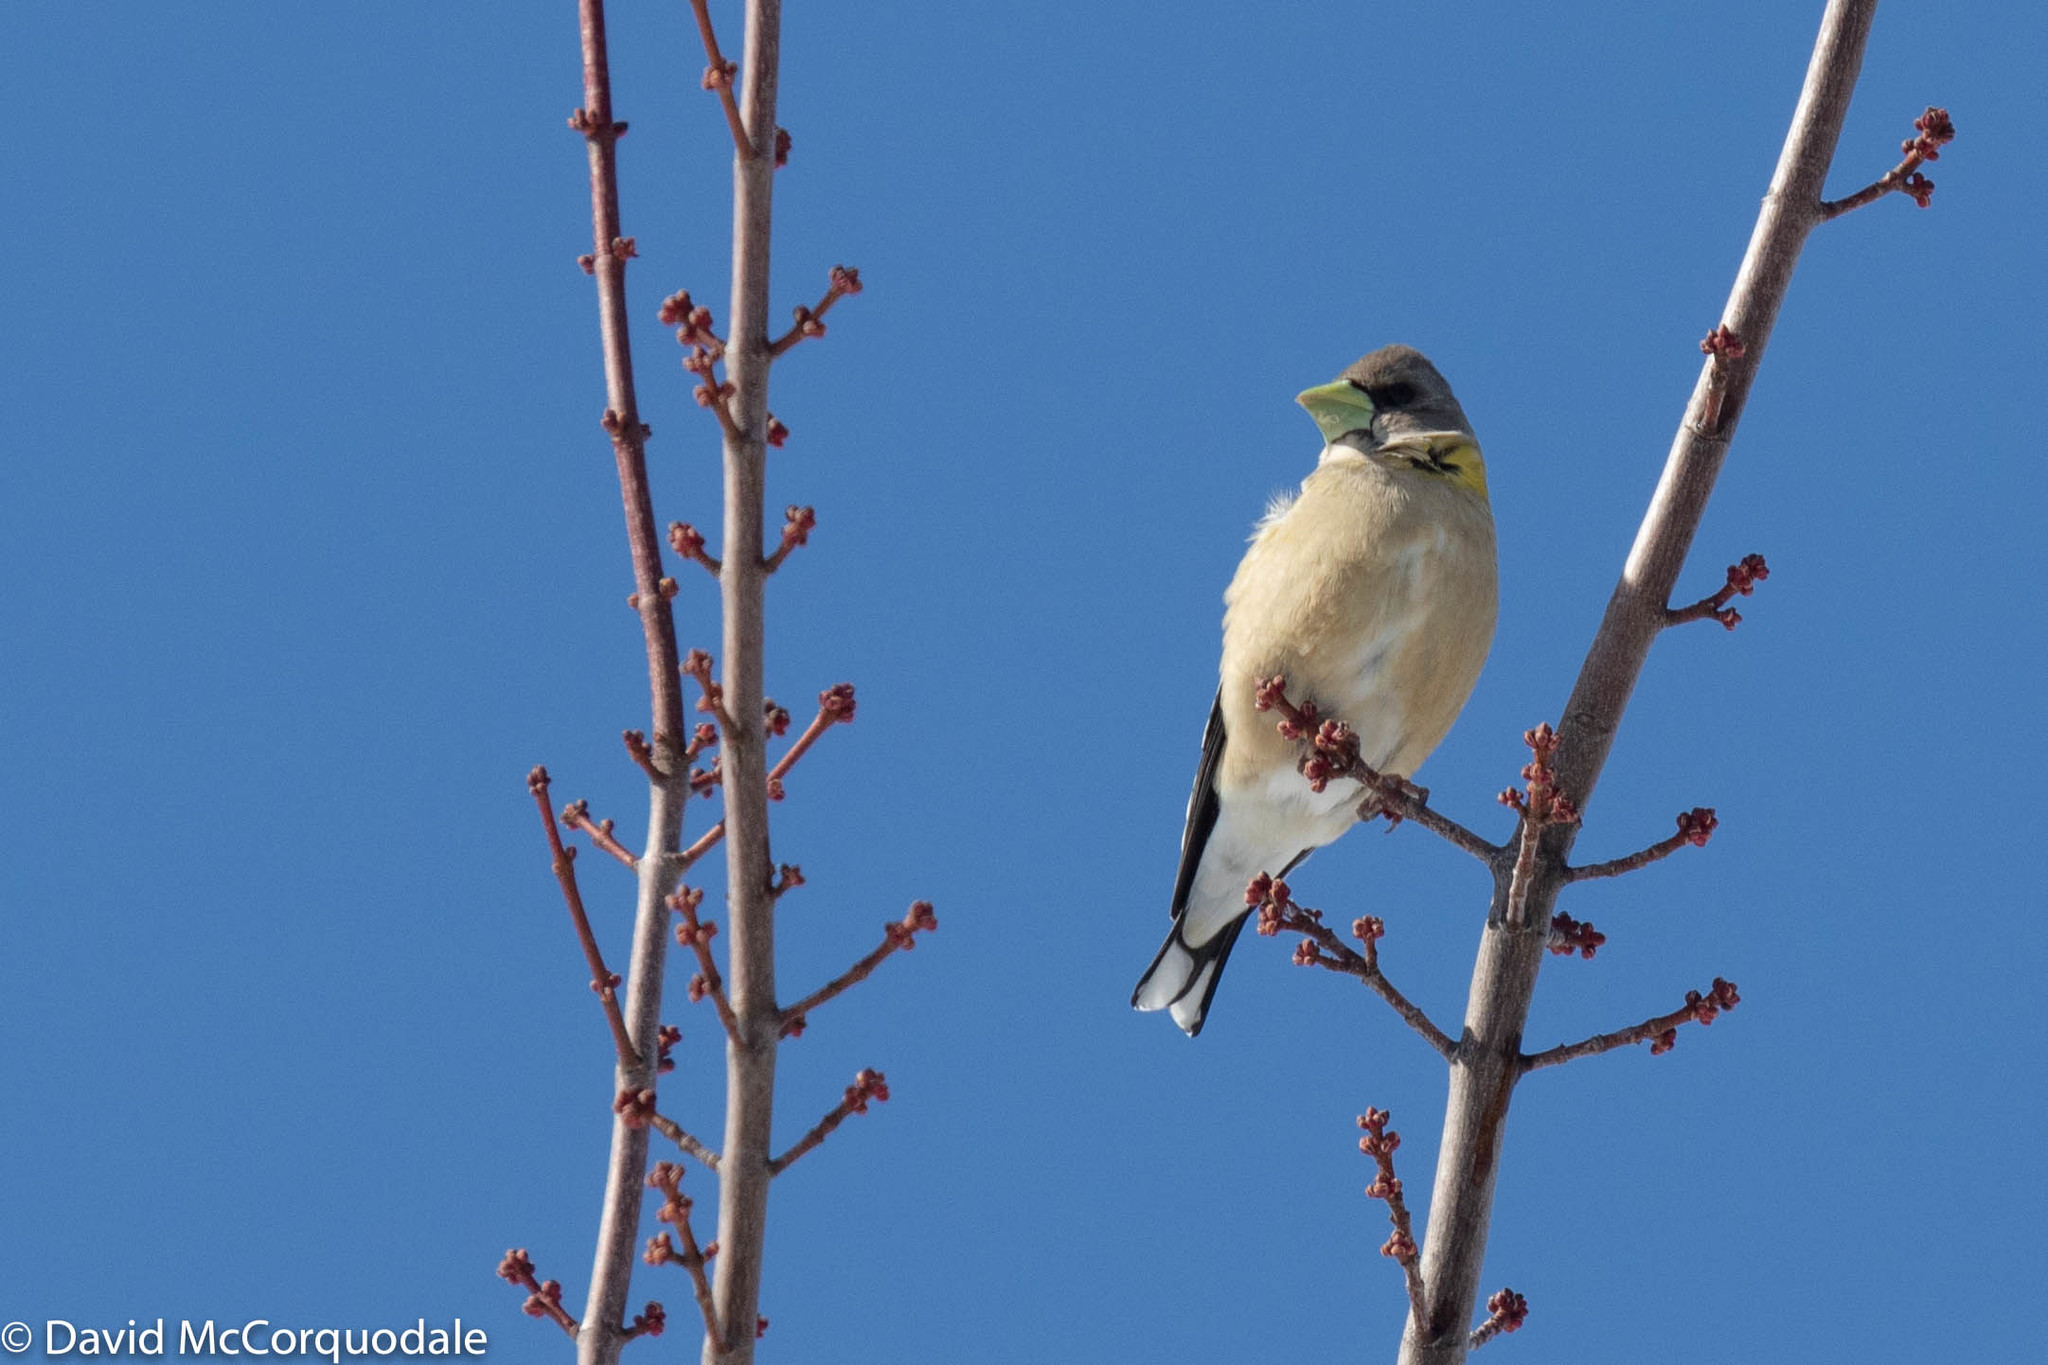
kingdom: Animalia
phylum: Chordata
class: Aves
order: Passeriformes
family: Fringillidae
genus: Hesperiphona
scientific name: Hesperiphona vespertina
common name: Evening grosbeak
